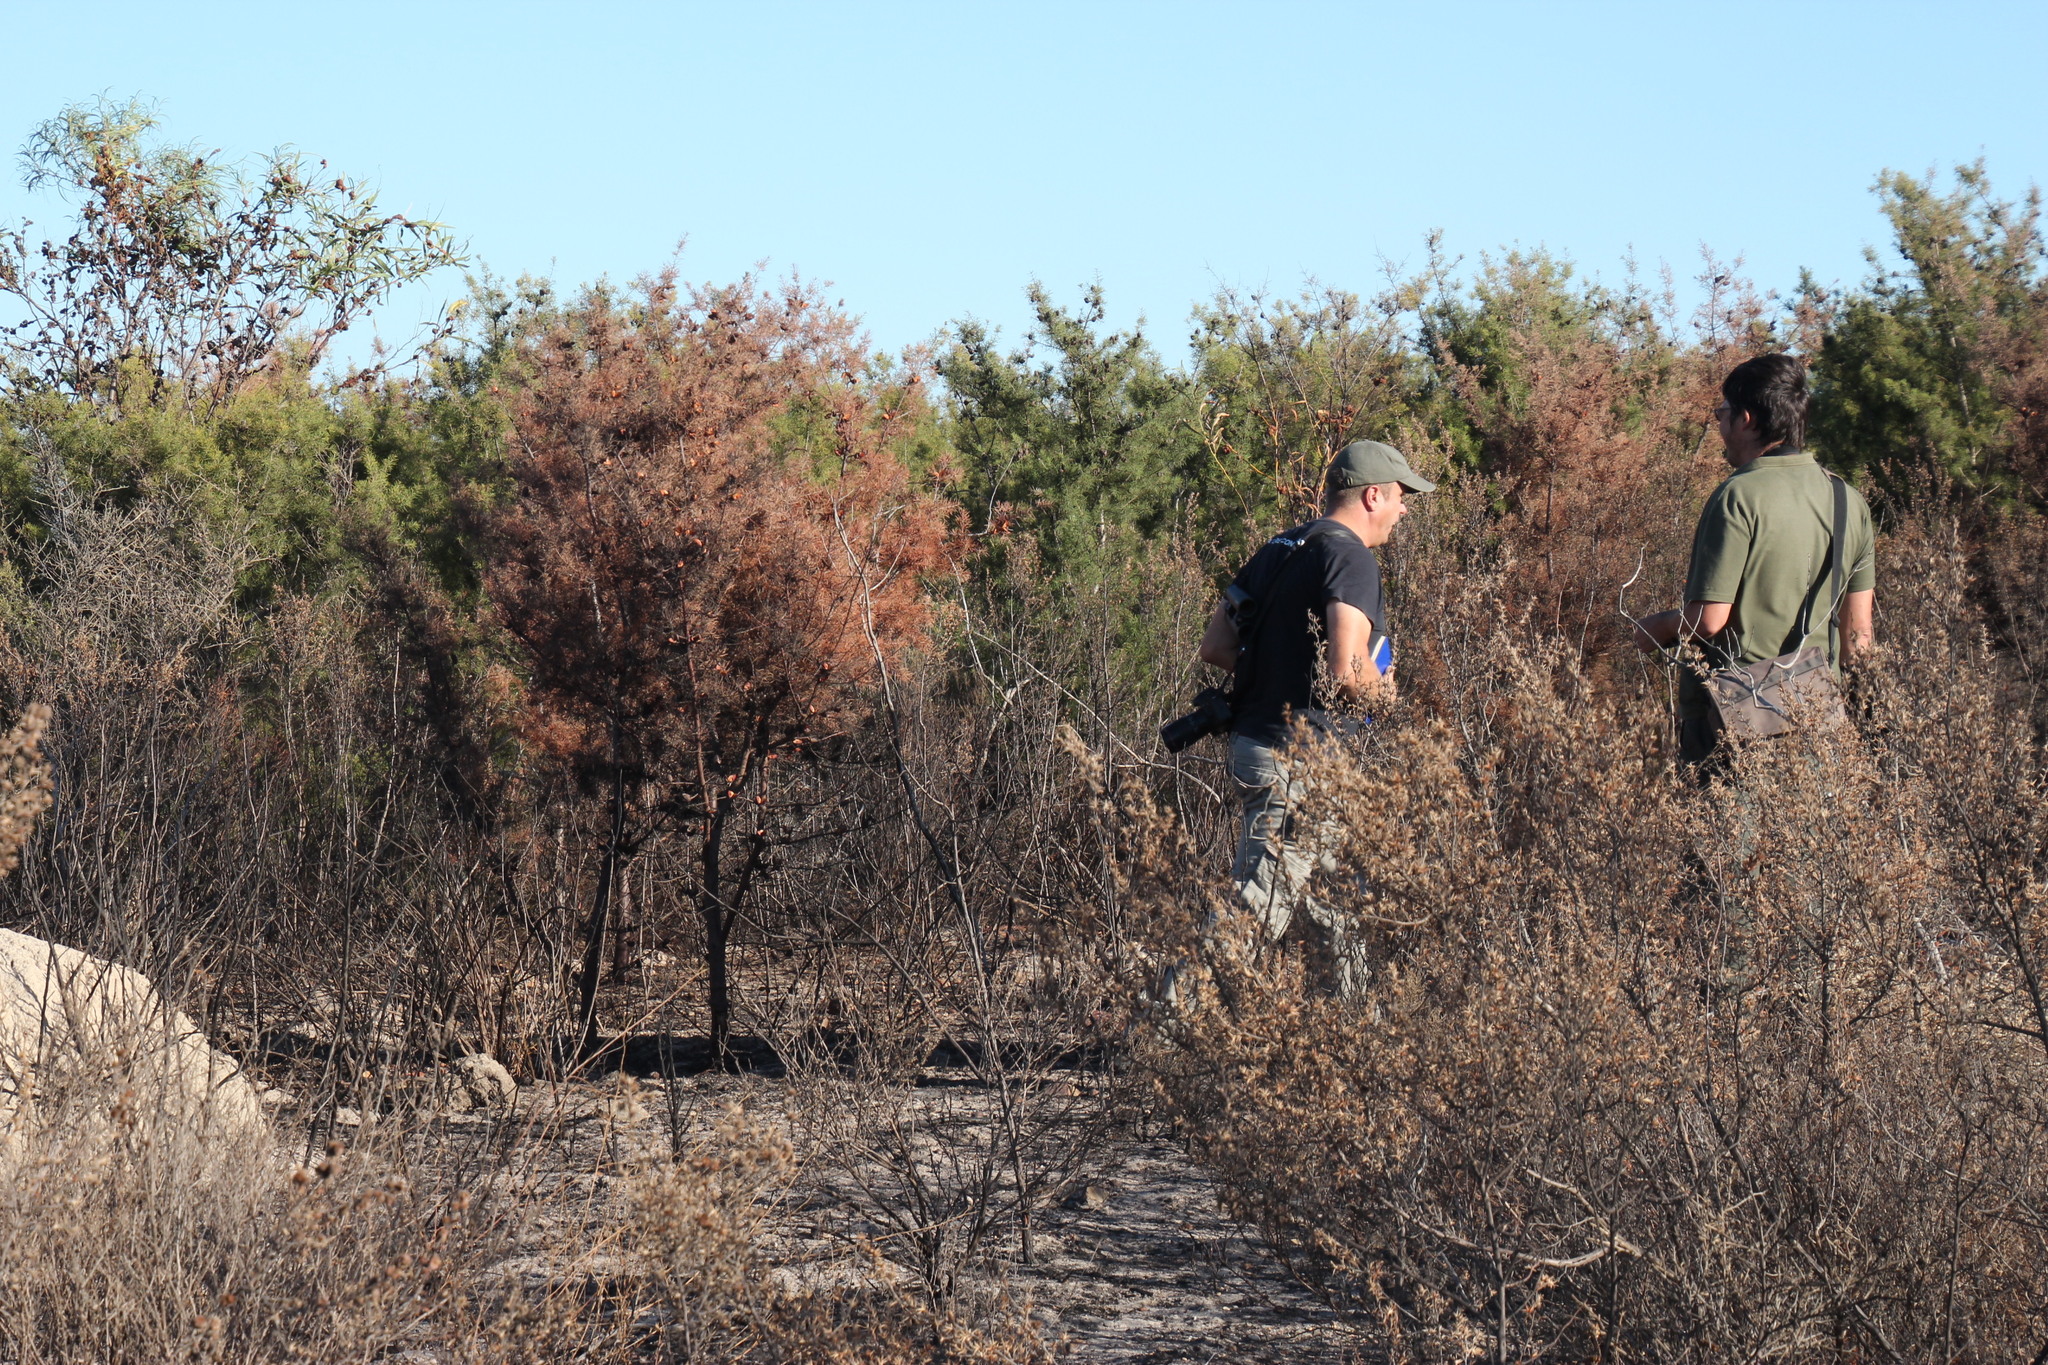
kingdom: Plantae
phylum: Tracheophyta
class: Magnoliopsida
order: Proteales
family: Proteaceae
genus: Hakea
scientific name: Hakea sericea
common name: Needle bush
